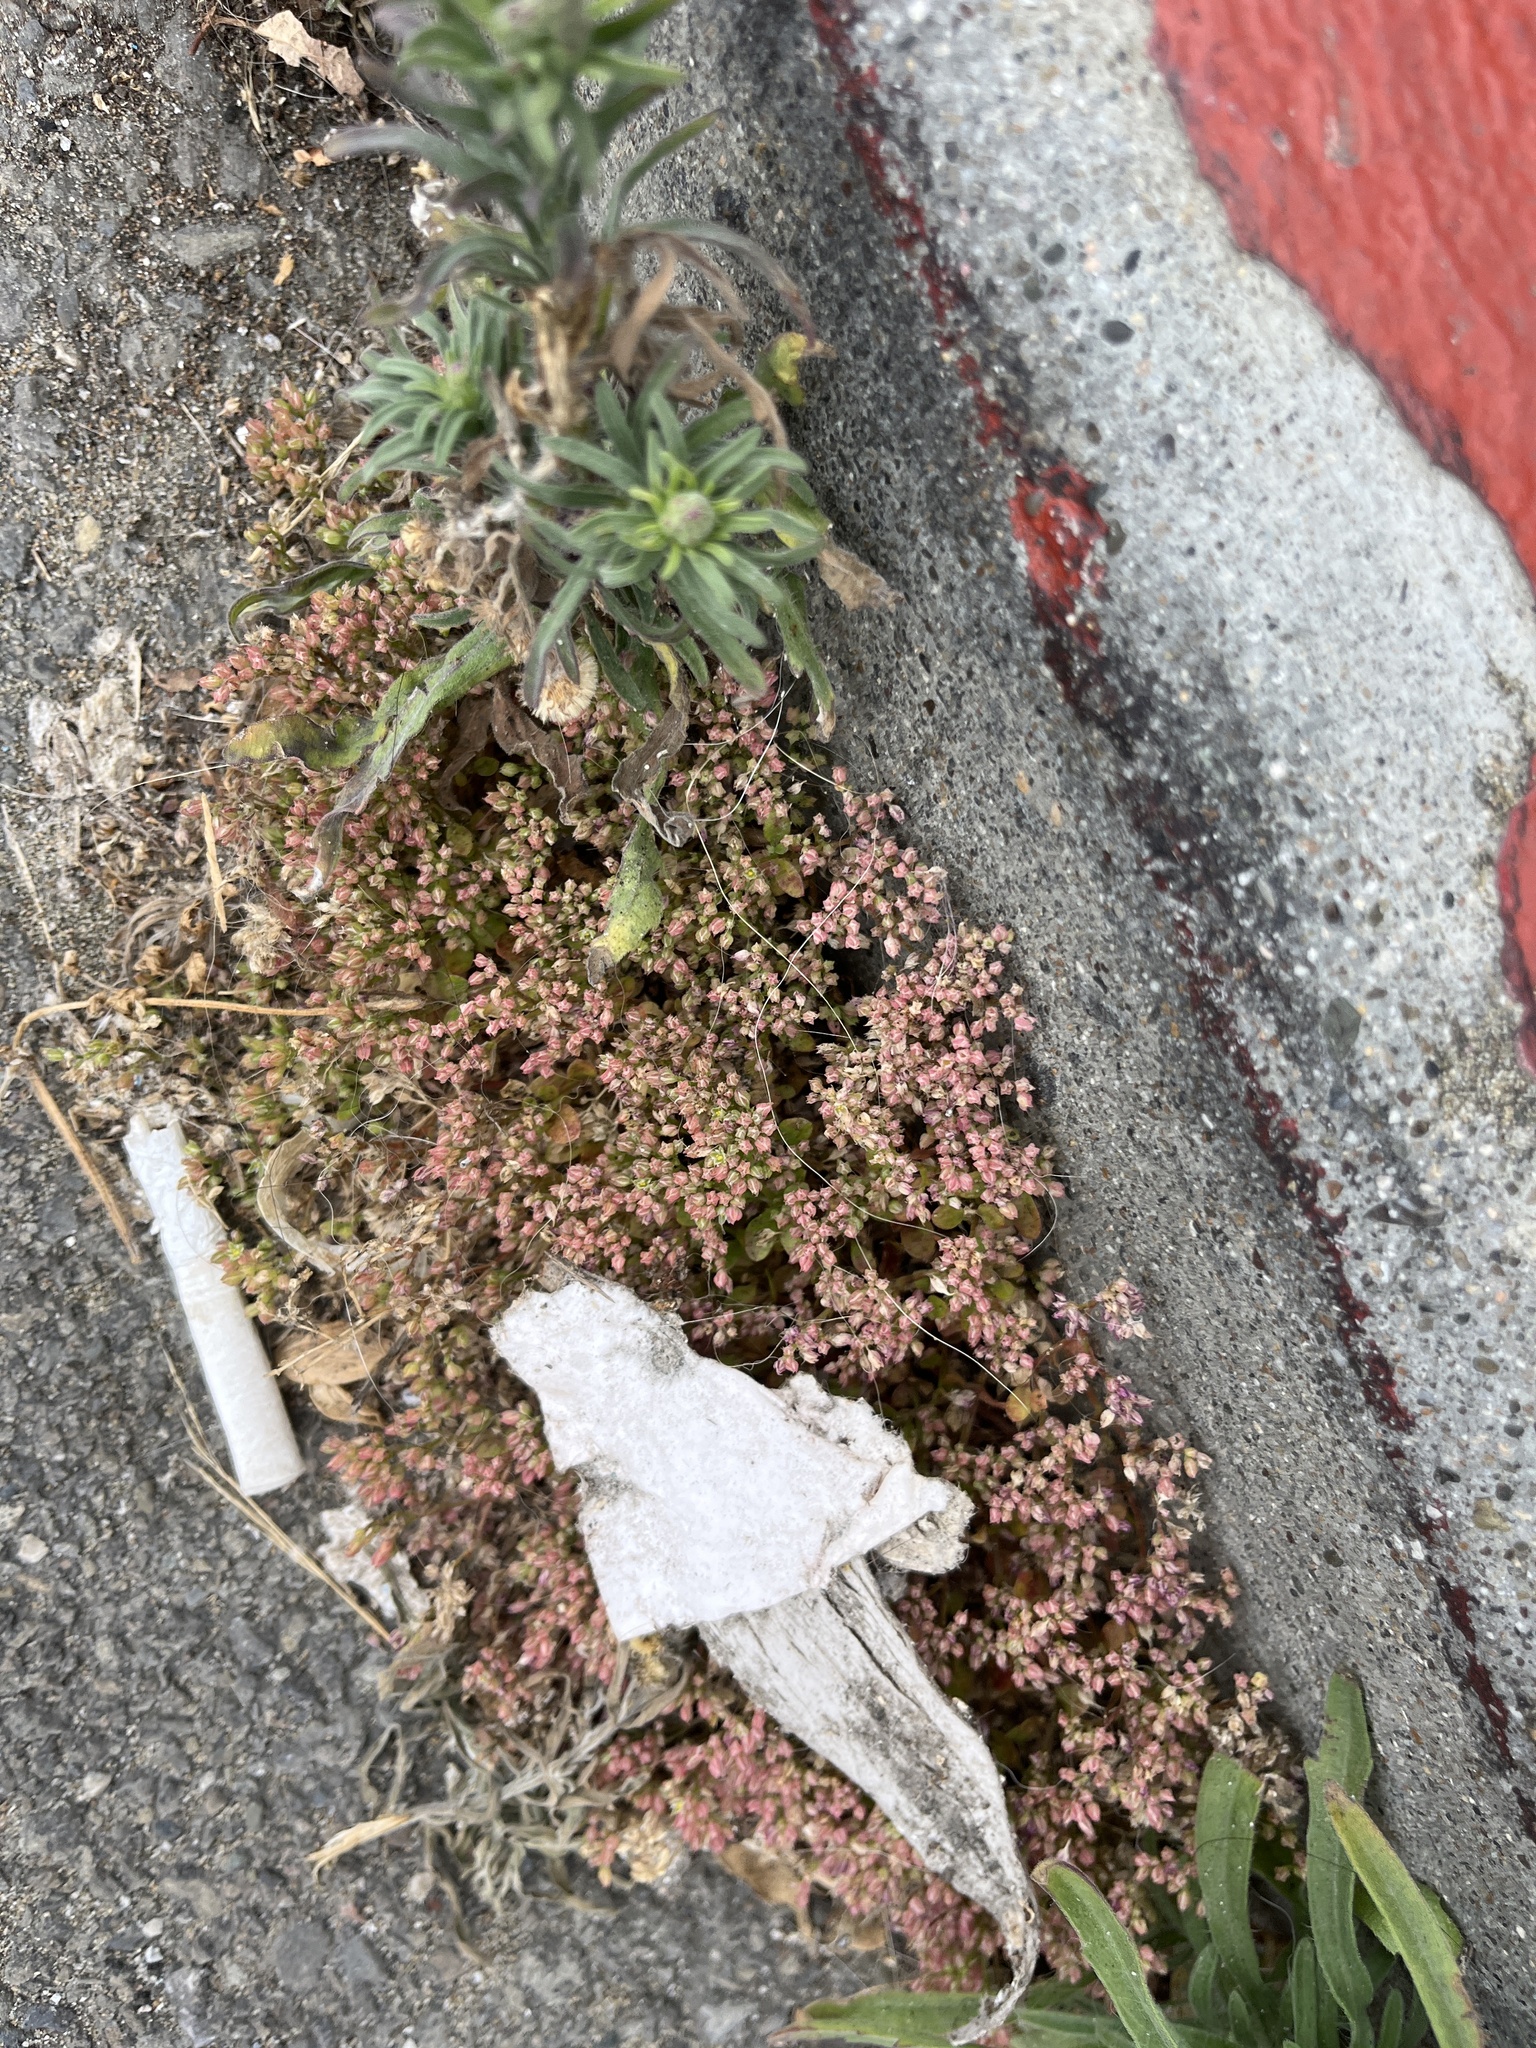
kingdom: Plantae
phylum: Tracheophyta
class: Magnoliopsida
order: Caryophyllales
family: Caryophyllaceae
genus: Polycarpon
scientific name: Polycarpon tetraphyllum
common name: Four-leaved all-seed
